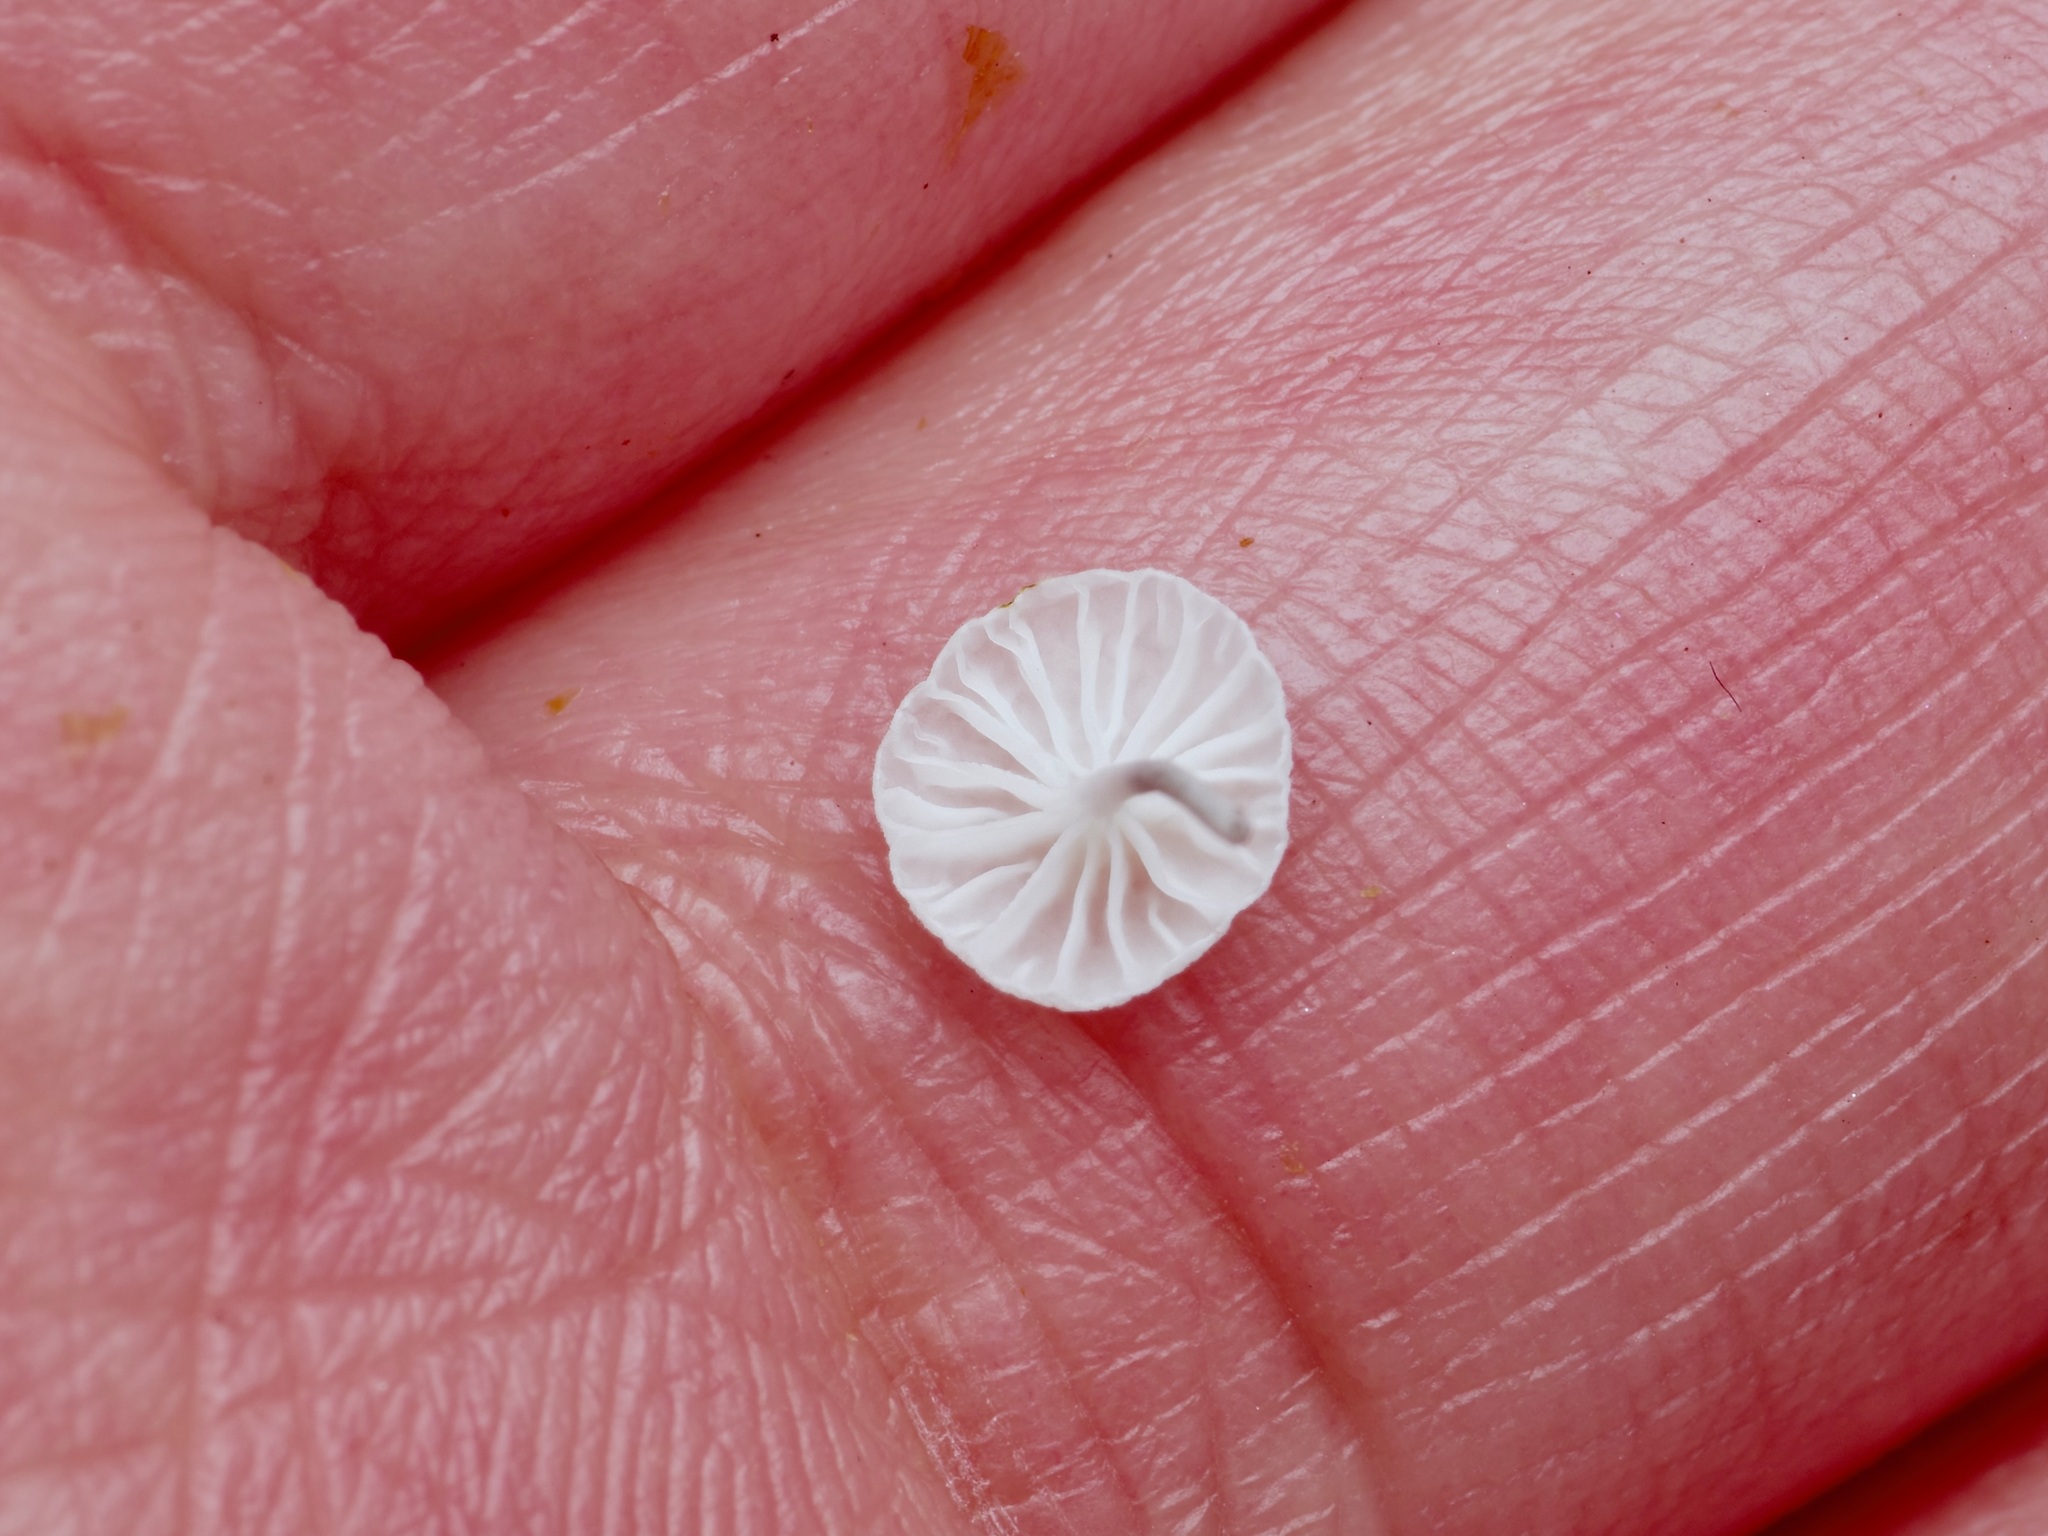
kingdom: Fungi
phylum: Basidiomycota
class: Agaricomycetes
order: Agaricales
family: Marasmiaceae
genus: Tetrapyrgos
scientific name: Tetrapyrgos nigripes
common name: Black-stalked marasmius
